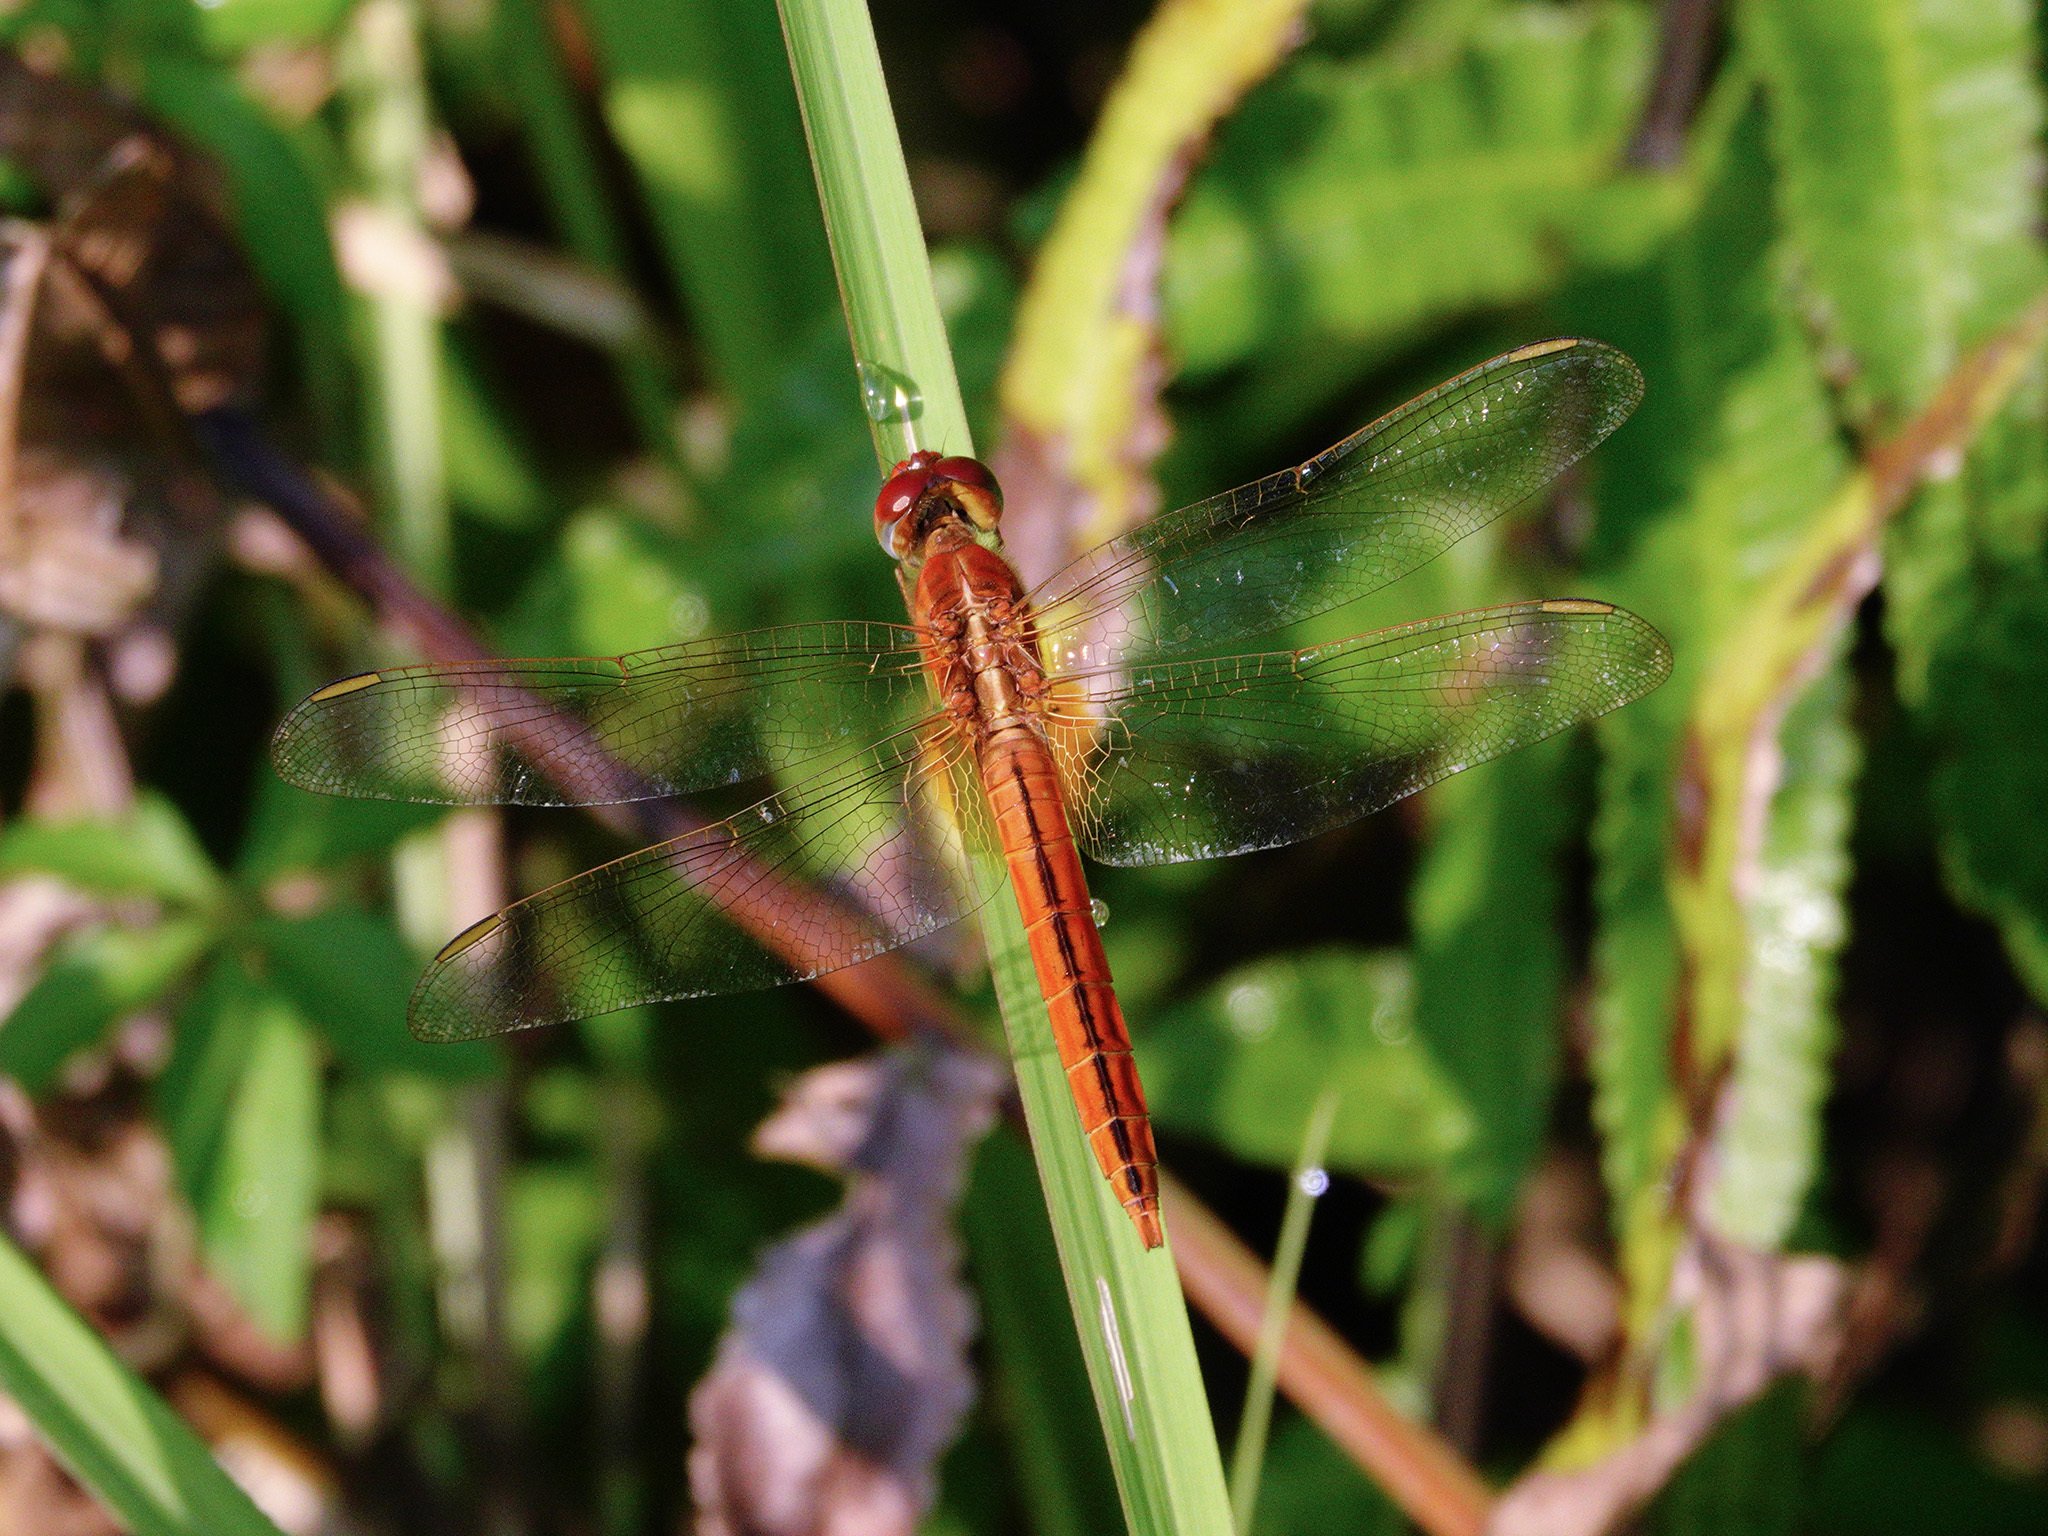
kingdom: Animalia
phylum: Arthropoda
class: Insecta
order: Odonata
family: Libellulidae
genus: Crocothemis
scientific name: Crocothemis servilia
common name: Scarlet skimmer
